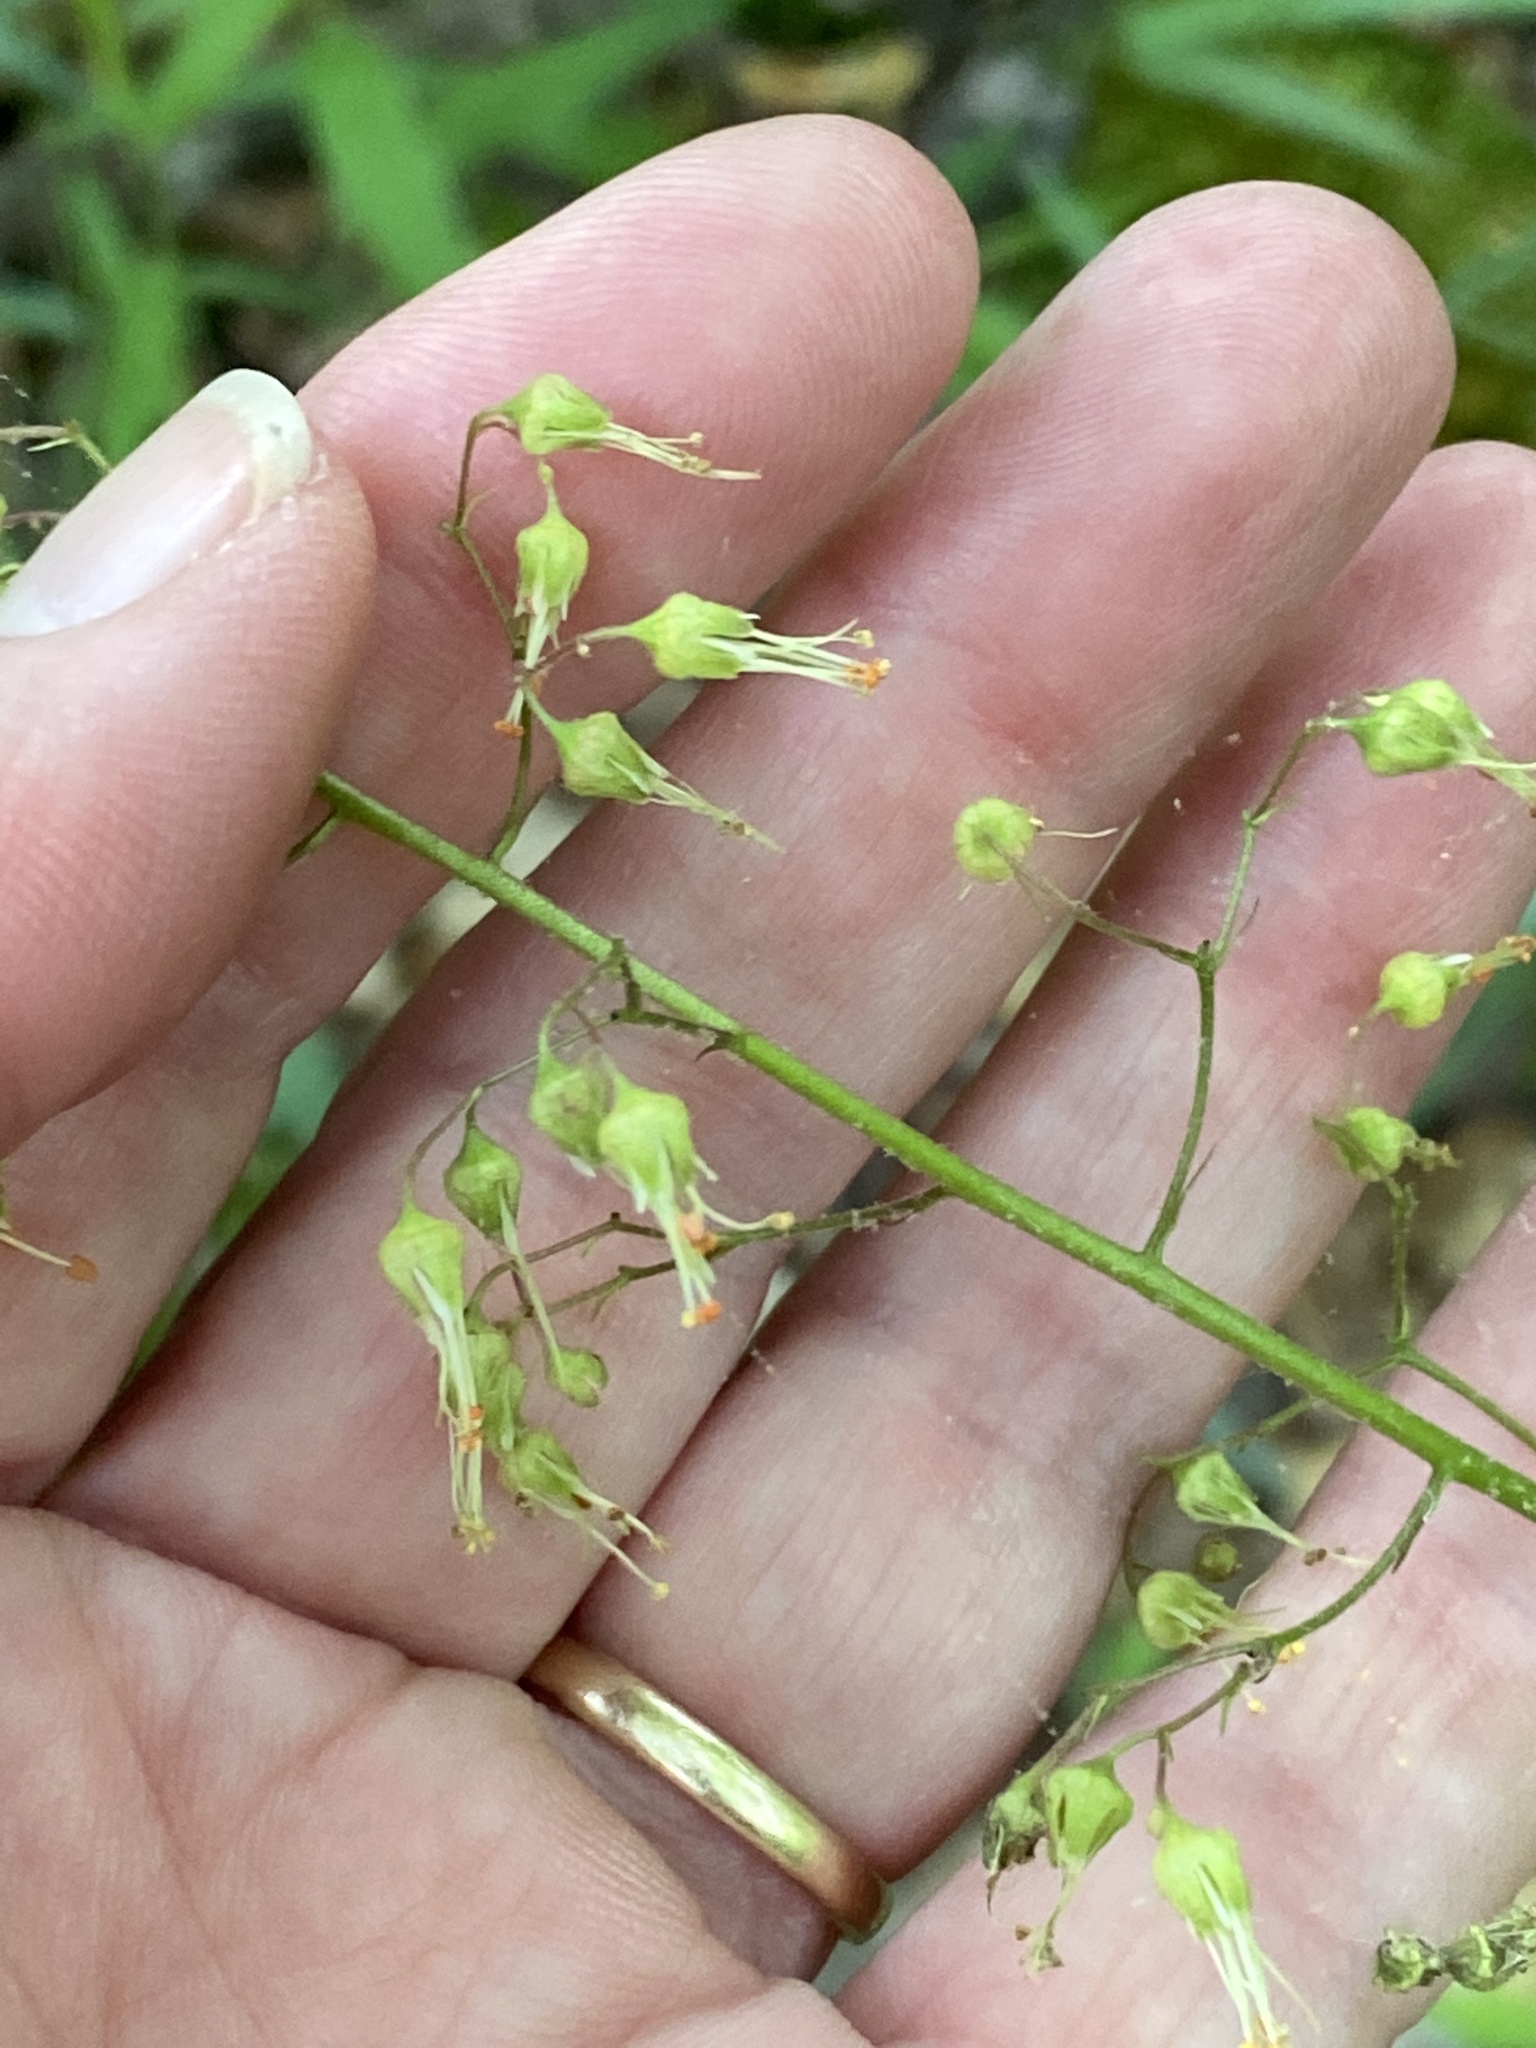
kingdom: Plantae
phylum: Tracheophyta
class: Magnoliopsida
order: Saxifragales
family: Saxifragaceae
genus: Heuchera
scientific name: Heuchera americana
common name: Alumroot
